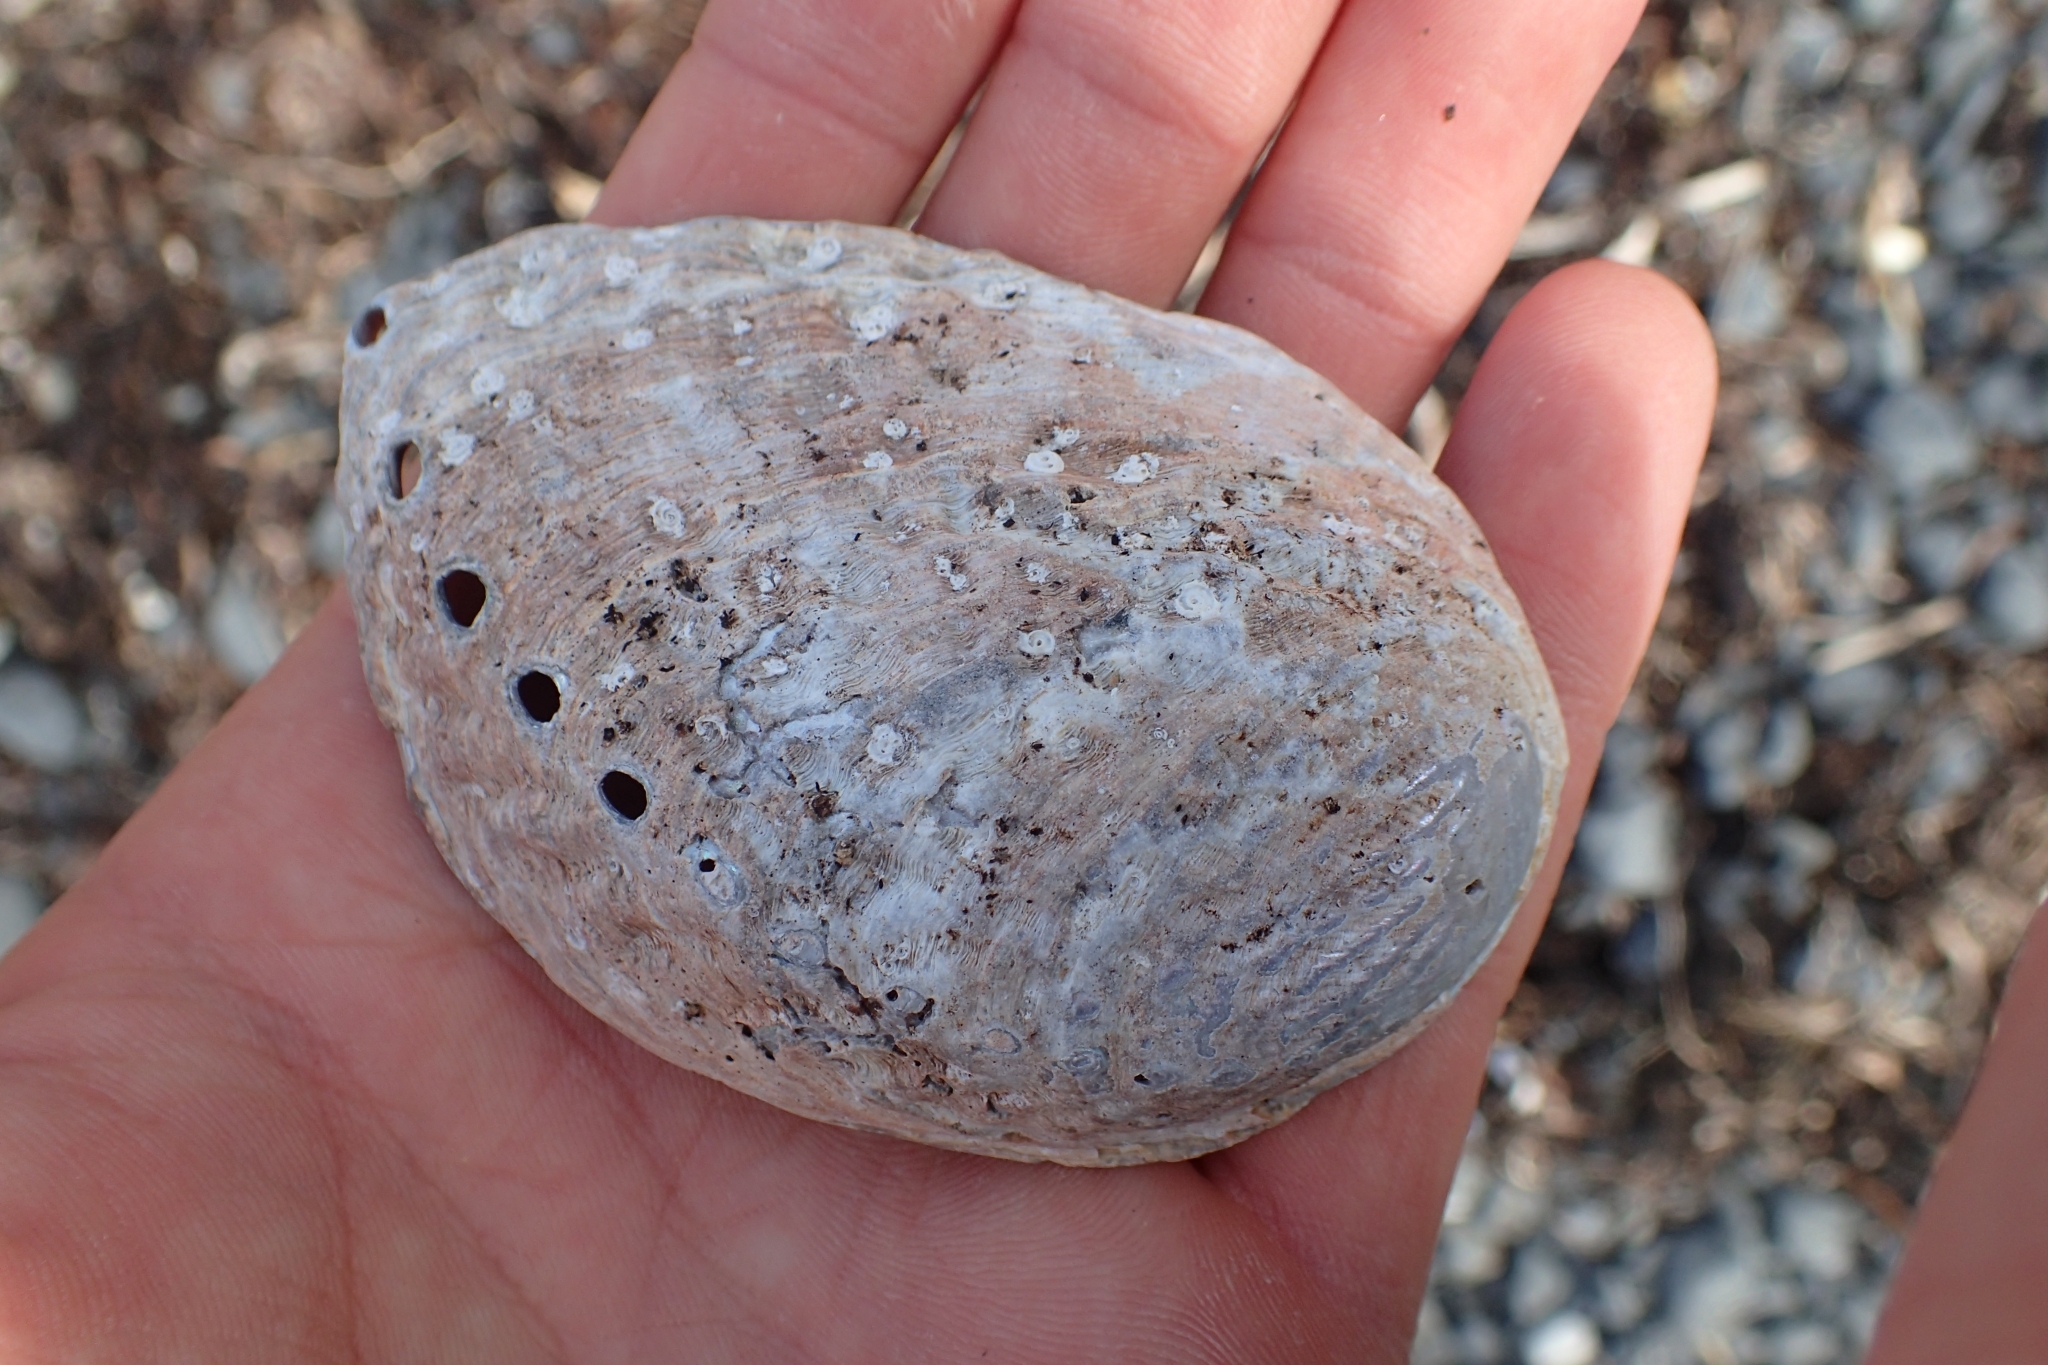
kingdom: Animalia
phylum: Mollusca
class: Gastropoda
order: Lepetellida
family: Haliotidae
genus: Haliotis
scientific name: Haliotis iris
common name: Abalone
